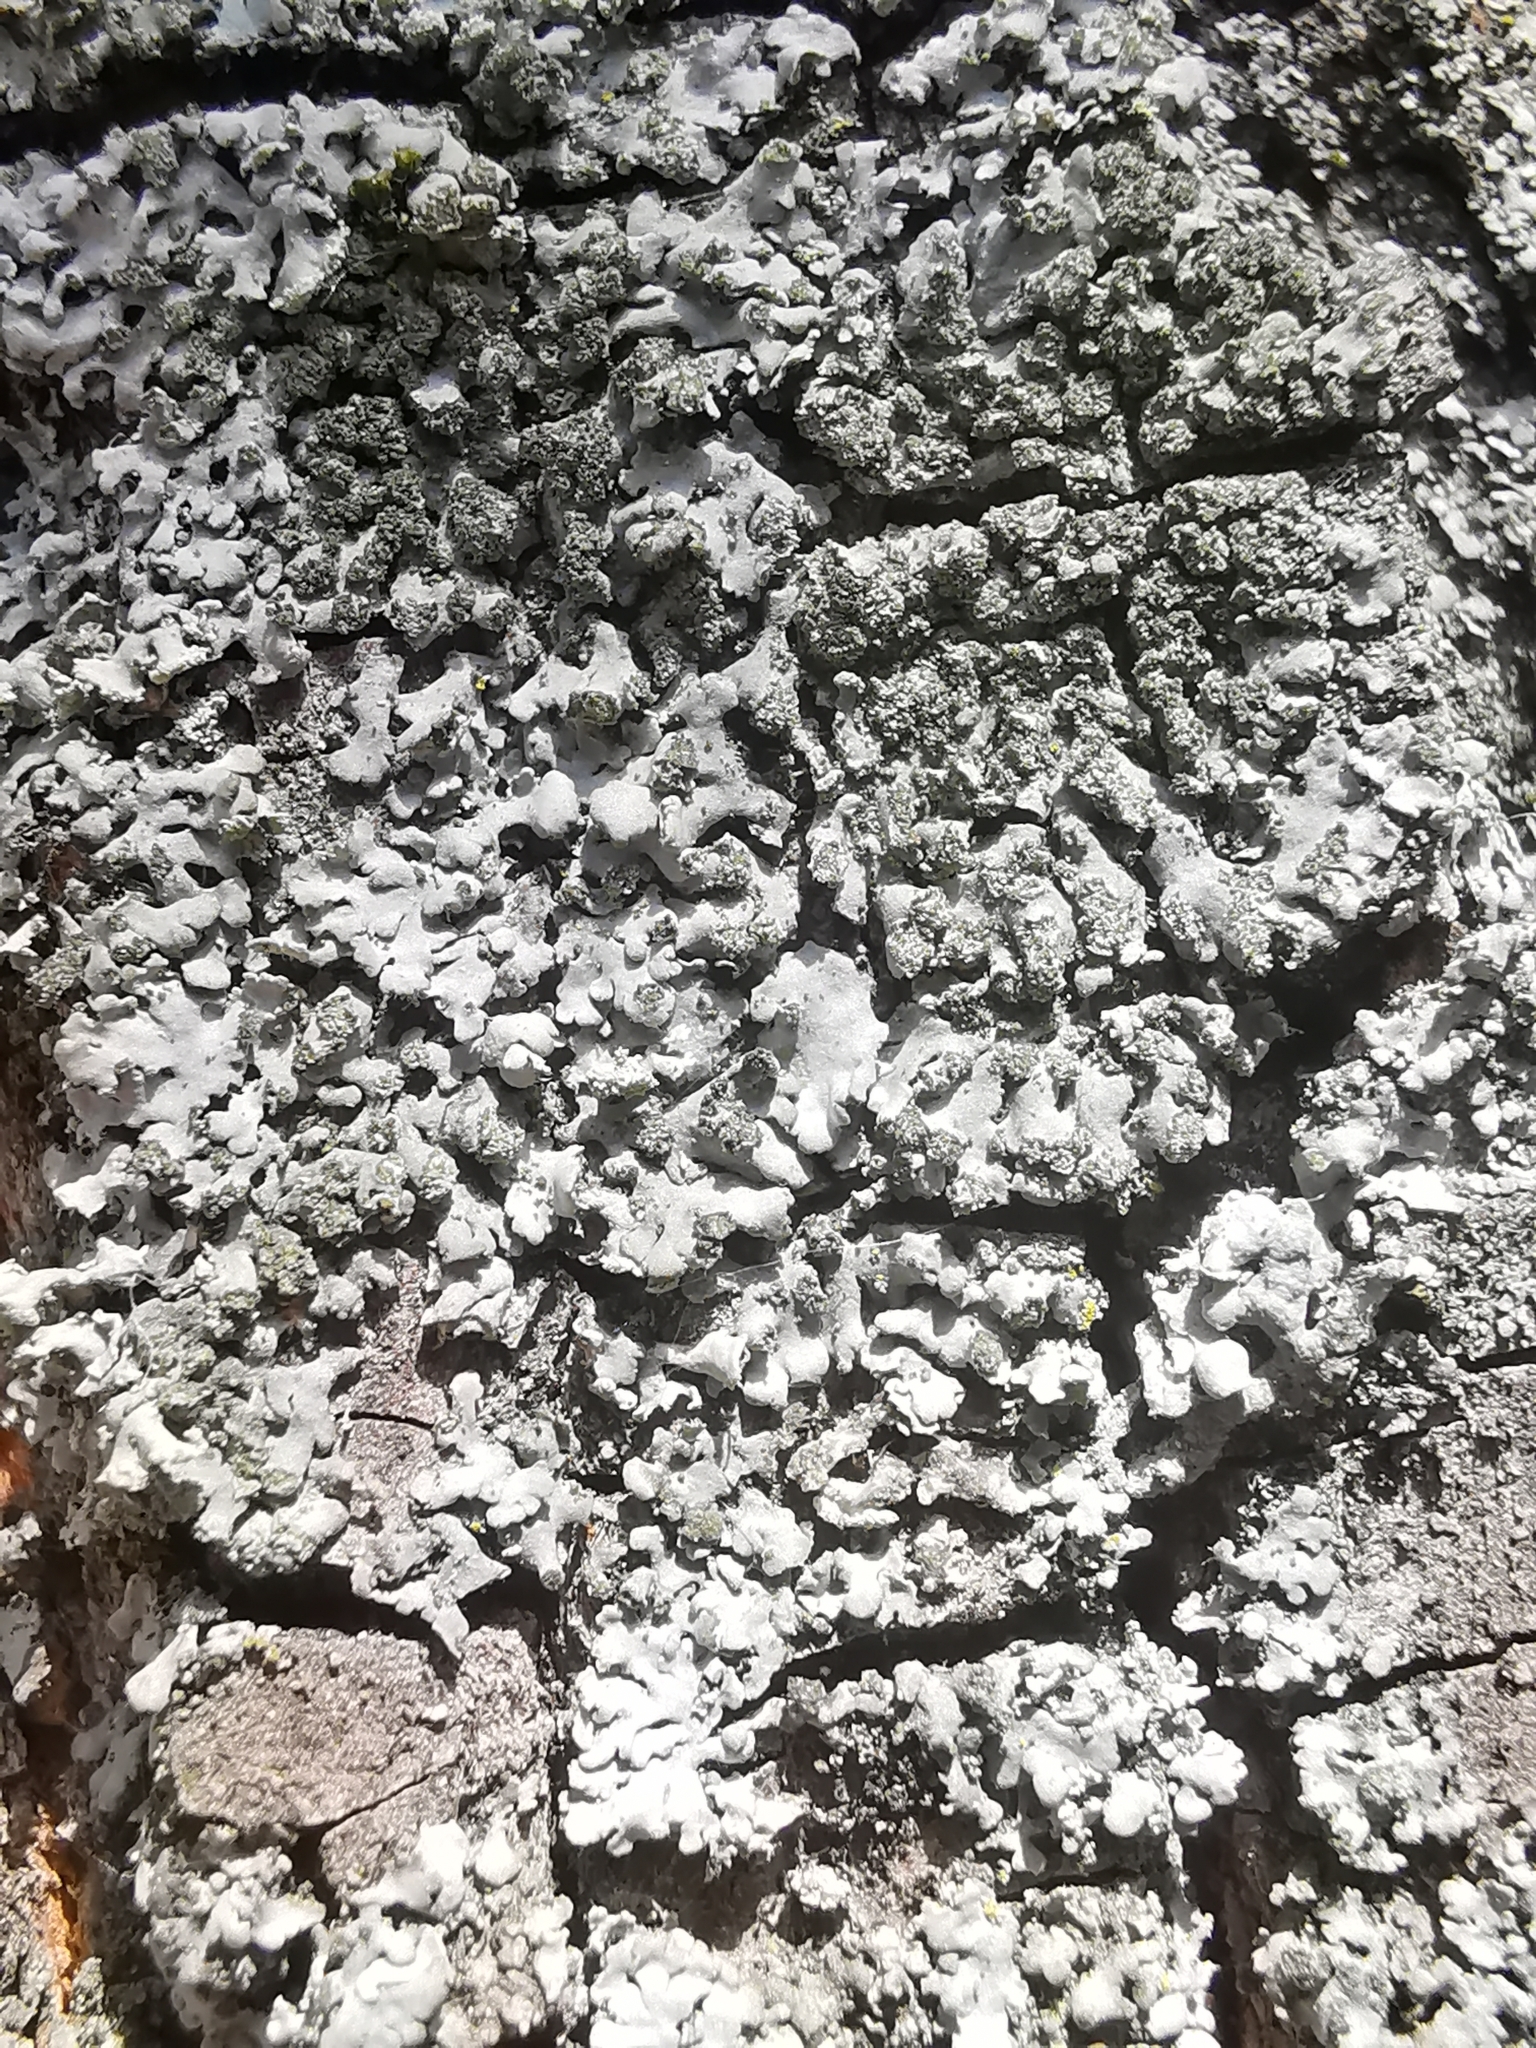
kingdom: Fungi
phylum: Ascomycota
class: Lecanoromycetes
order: Caliciales
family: Physciaceae
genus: Phaeophyscia
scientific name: Phaeophyscia orbicularis
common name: Mealy shadow lichen
